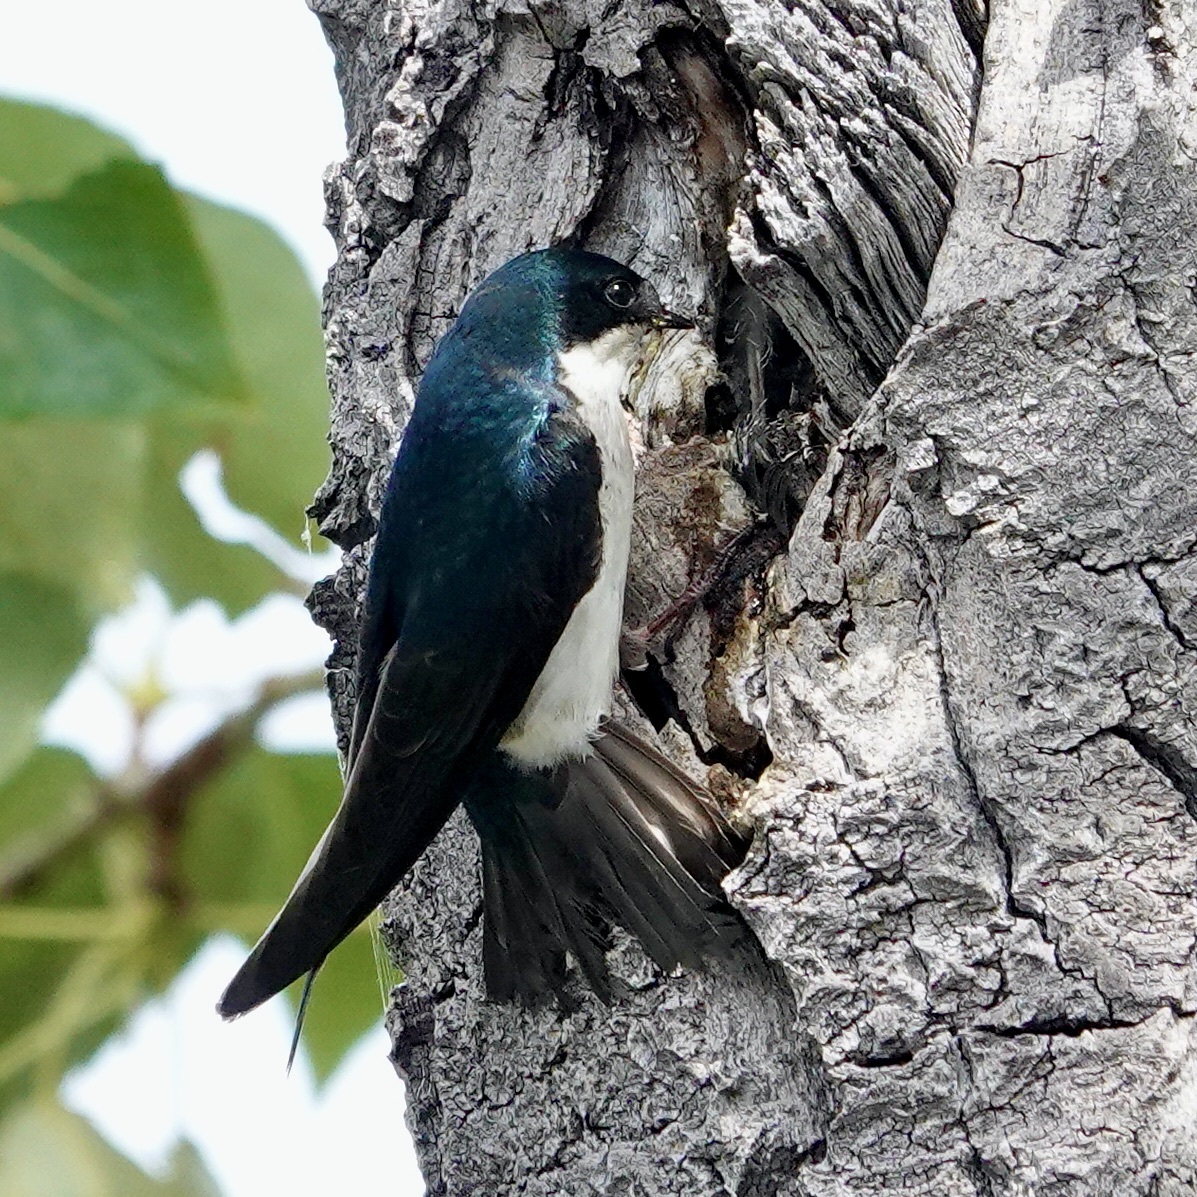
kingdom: Animalia
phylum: Chordata
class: Aves
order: Passeriformes
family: Hirundinidae
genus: Tachycineta
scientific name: Tachycineta bicolor
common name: Tree swallow
